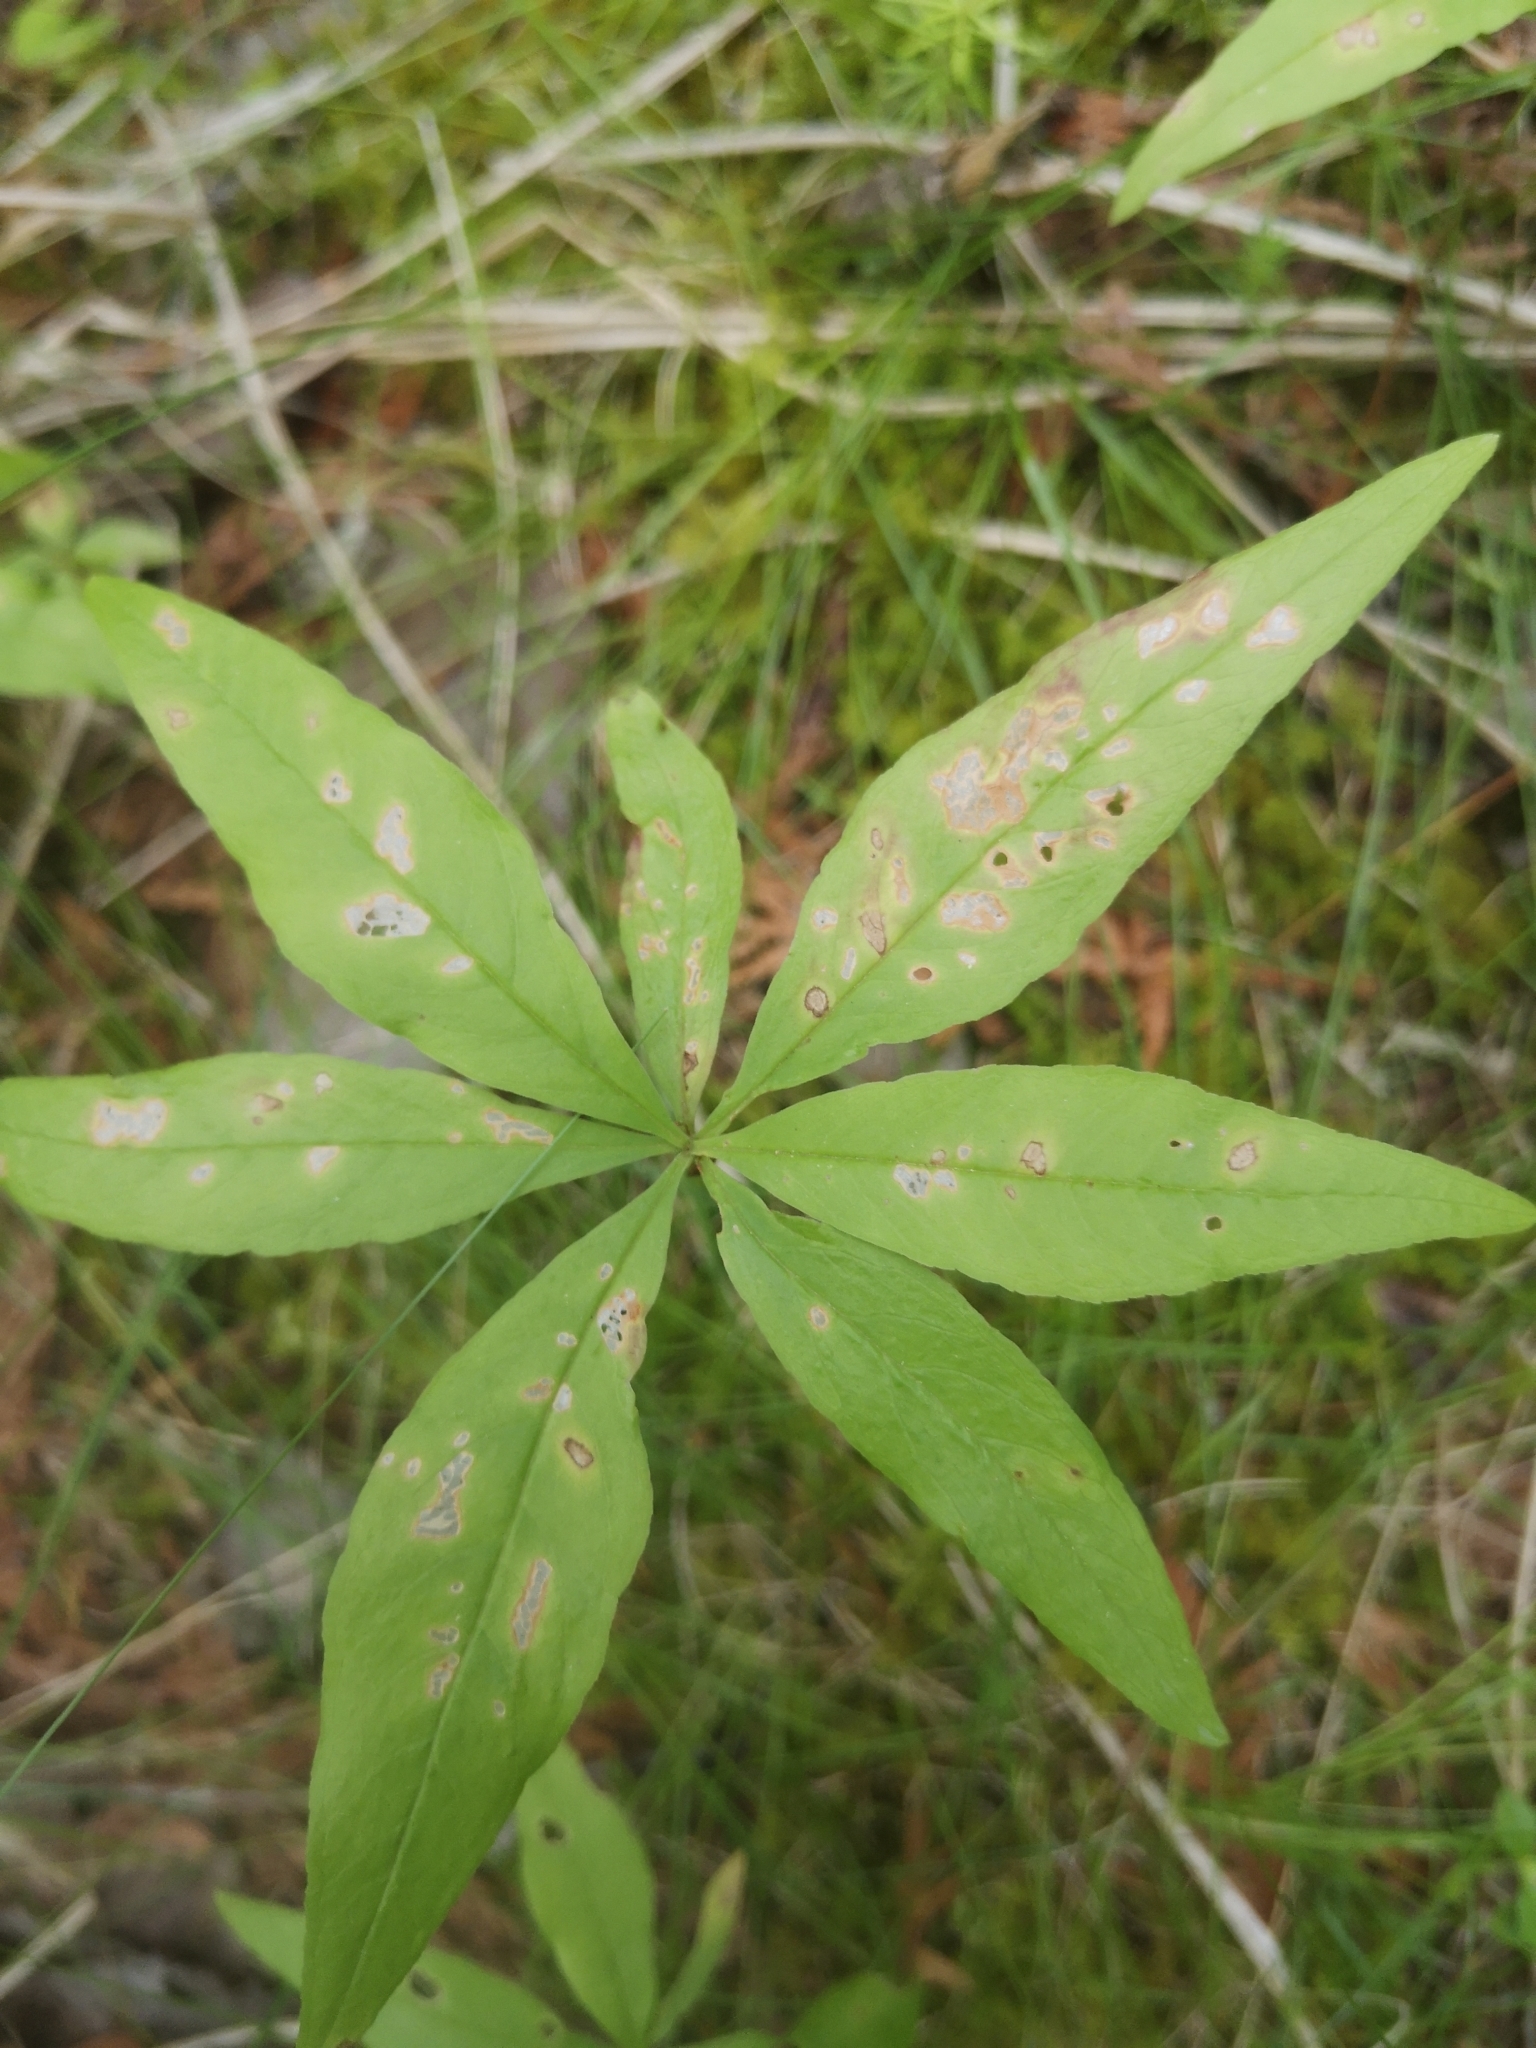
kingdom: Plantae
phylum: Tracheophyta
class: Magnoliopsida
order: Ericales
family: Primulaceae
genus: Lysimachia
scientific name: Lysimachia borealis
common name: American starflower
